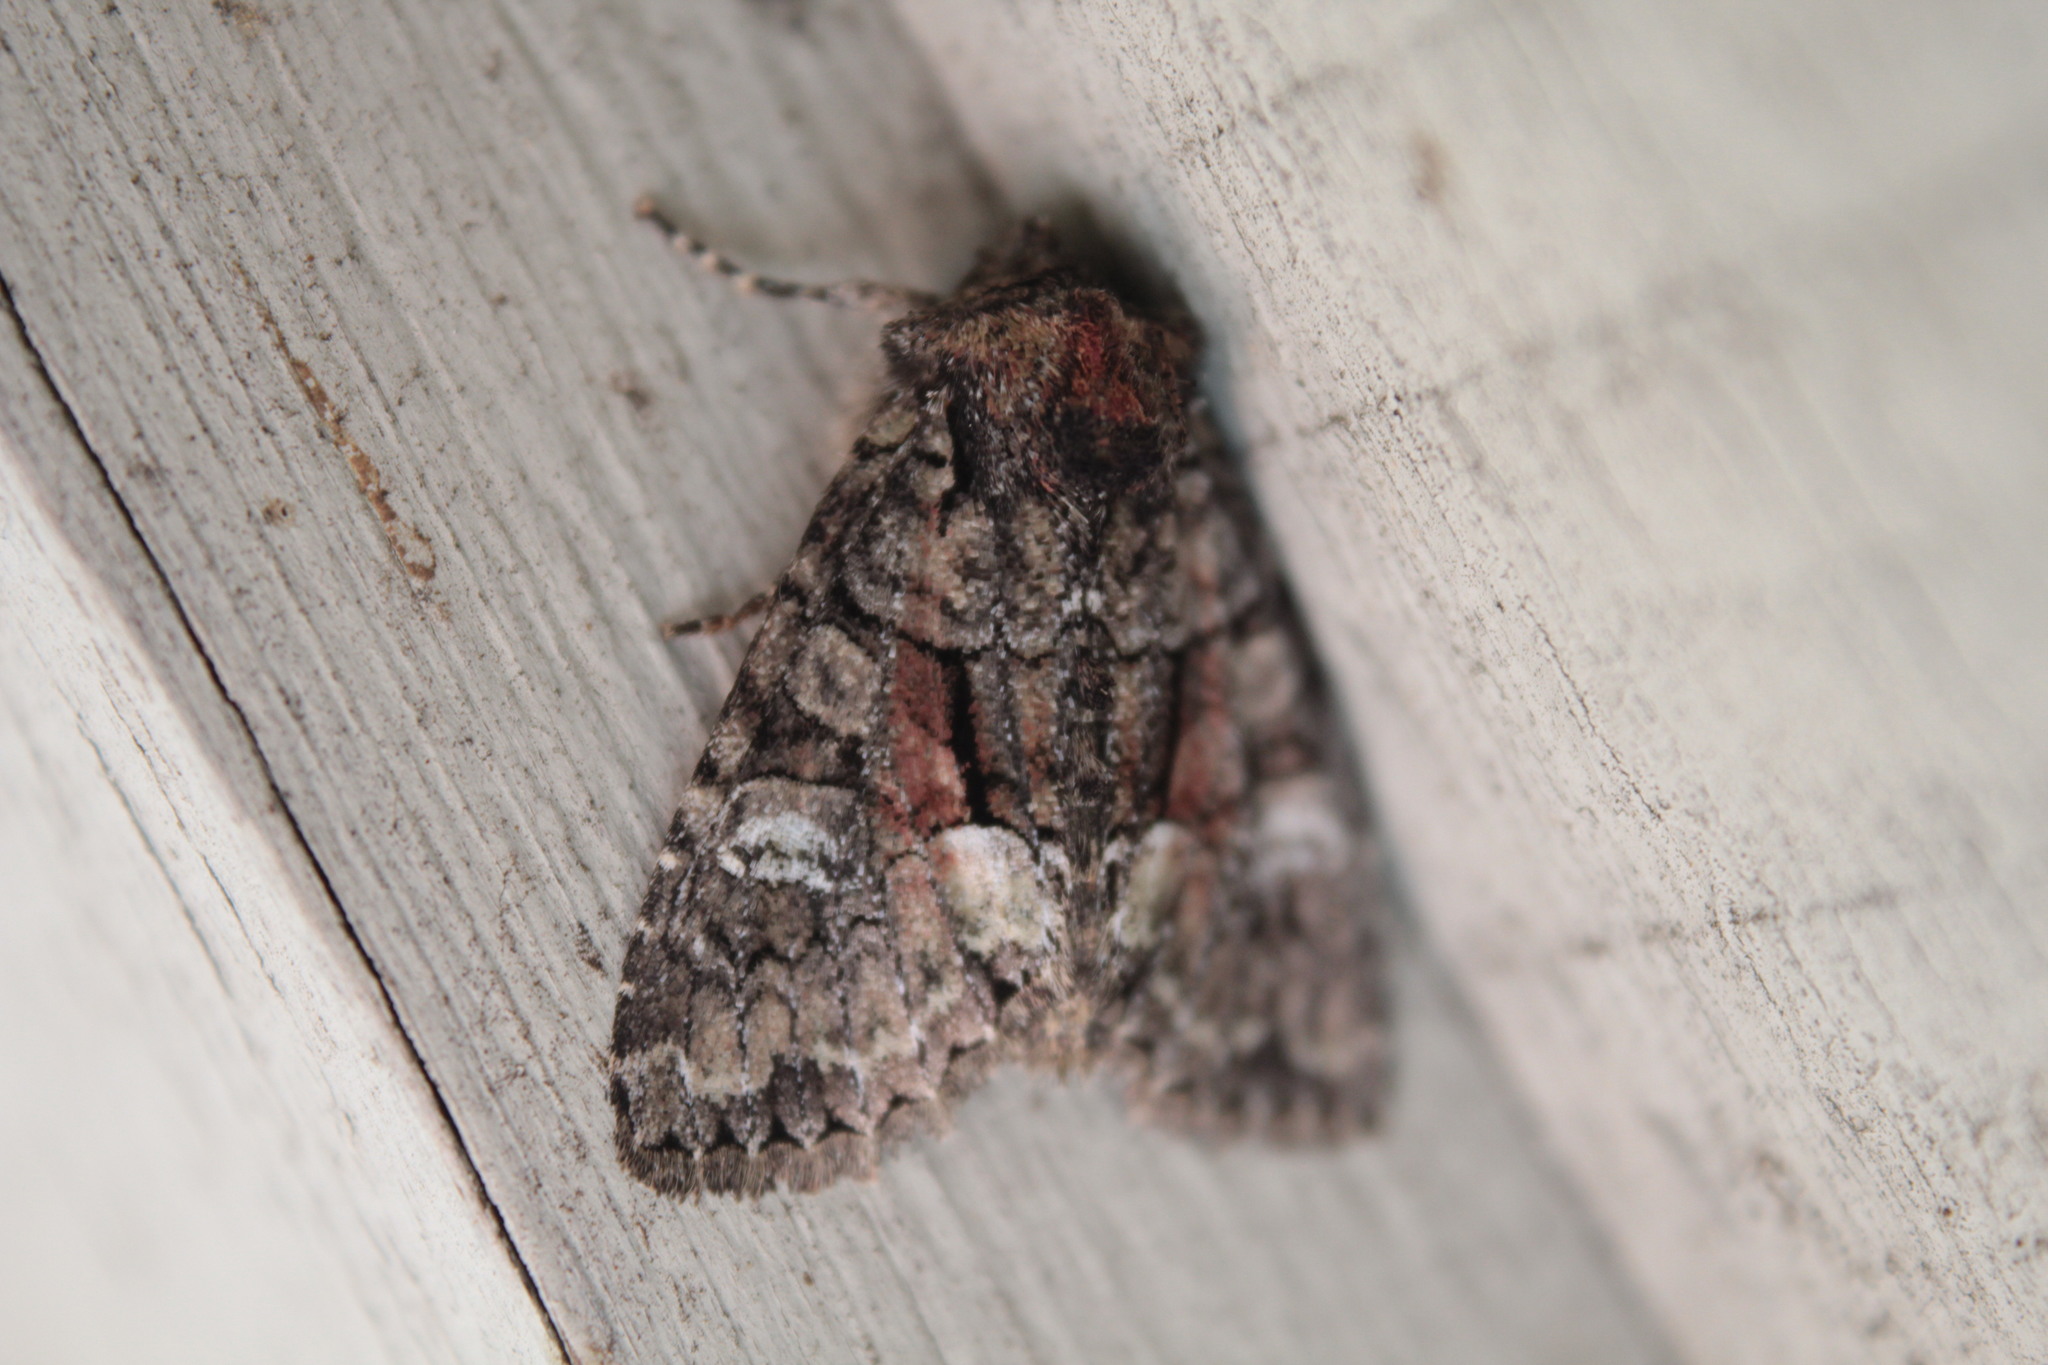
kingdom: Animalia
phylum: Arthropoda
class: Insecta
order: Lepidoptera
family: Noctuidae
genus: Fishia
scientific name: Fishia illocata
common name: Wandering brocade moth
